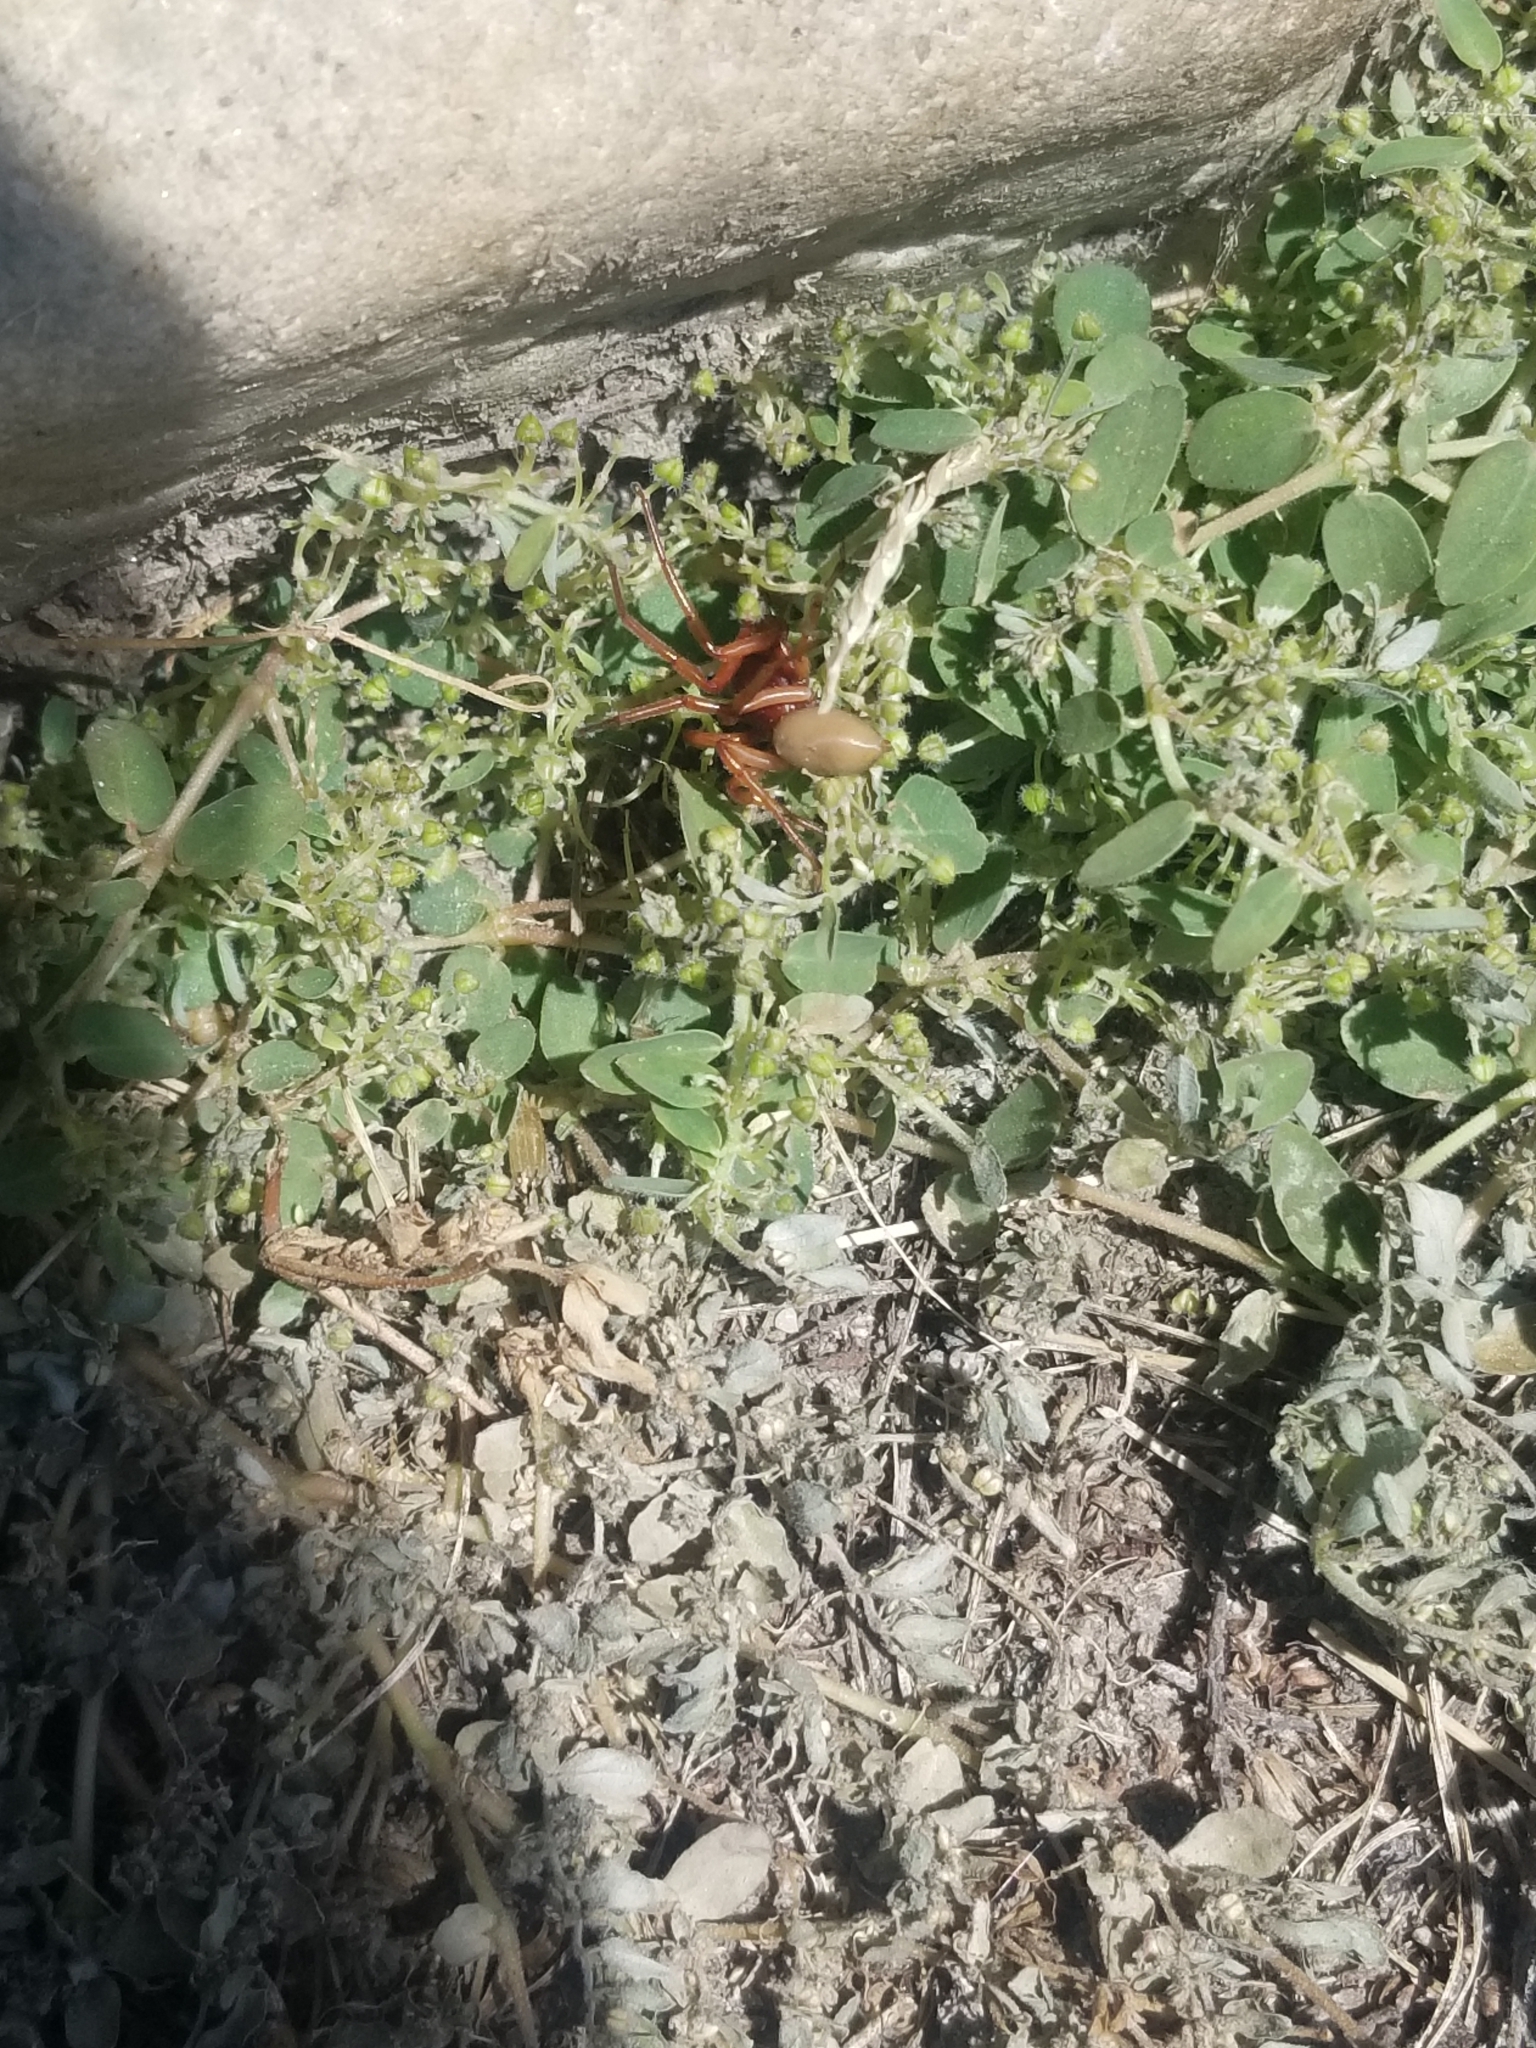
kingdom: Animalia
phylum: Arthropoda
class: Arachnida
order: Araneae
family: Dysderidae
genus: Dysdera
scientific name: Dysdera crocata
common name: Woodlouse spider
